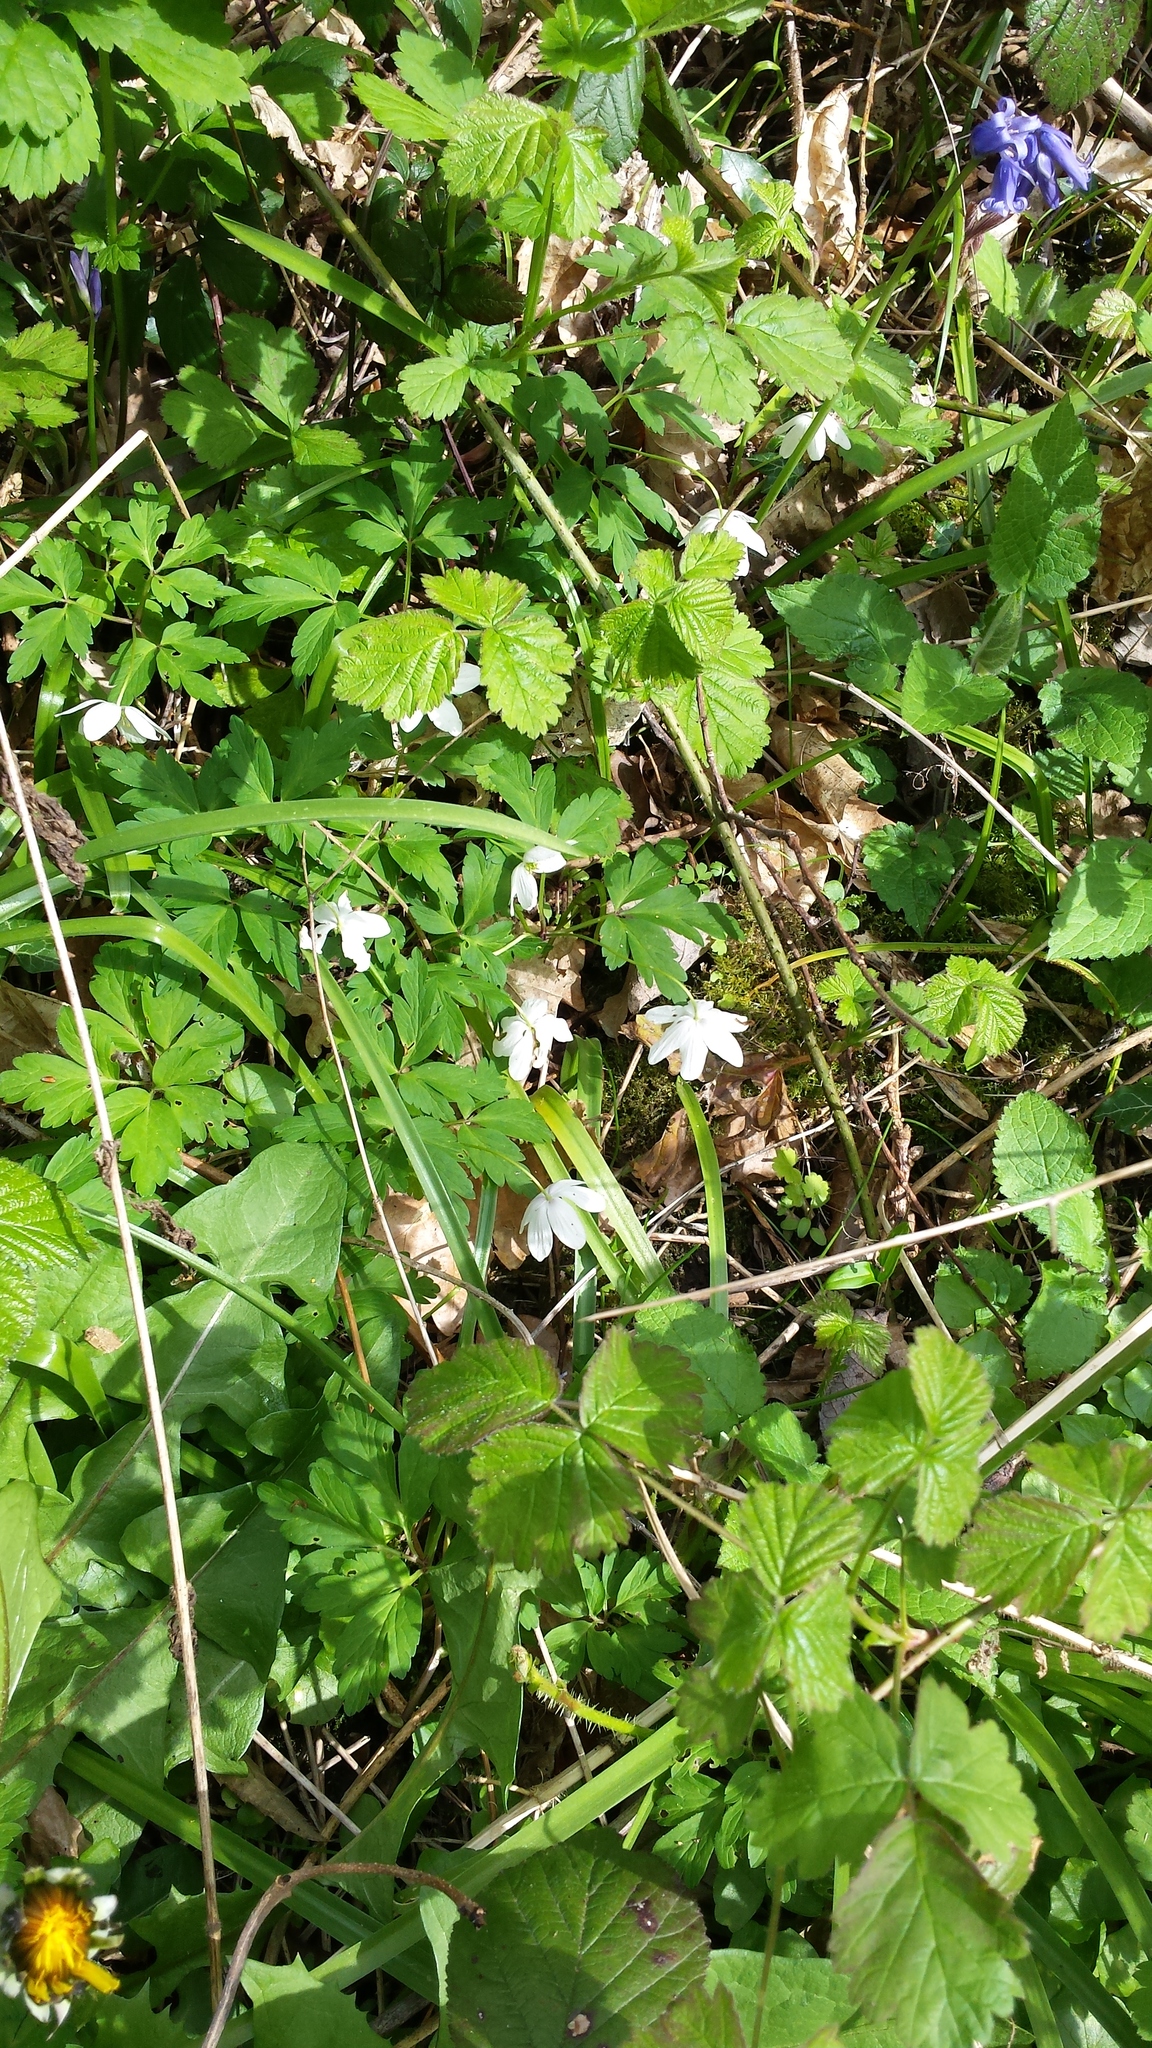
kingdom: Plantae
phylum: Tracheophyta
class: Magnoliopsida
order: Ranunculales
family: Ranunculaceae
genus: Anemone
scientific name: Anemone nemorosa
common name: Wood anemone
